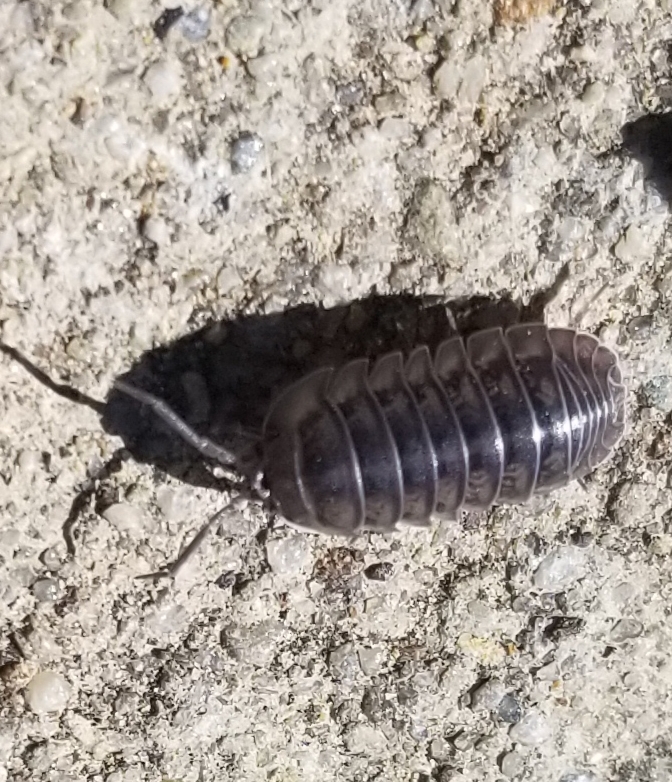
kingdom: Animalia
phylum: Arthropoda
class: Malacostraca
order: Isopoda
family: Armadillidiidae
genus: Armadillidium
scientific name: Armadillidium nasatum
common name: Isopod
